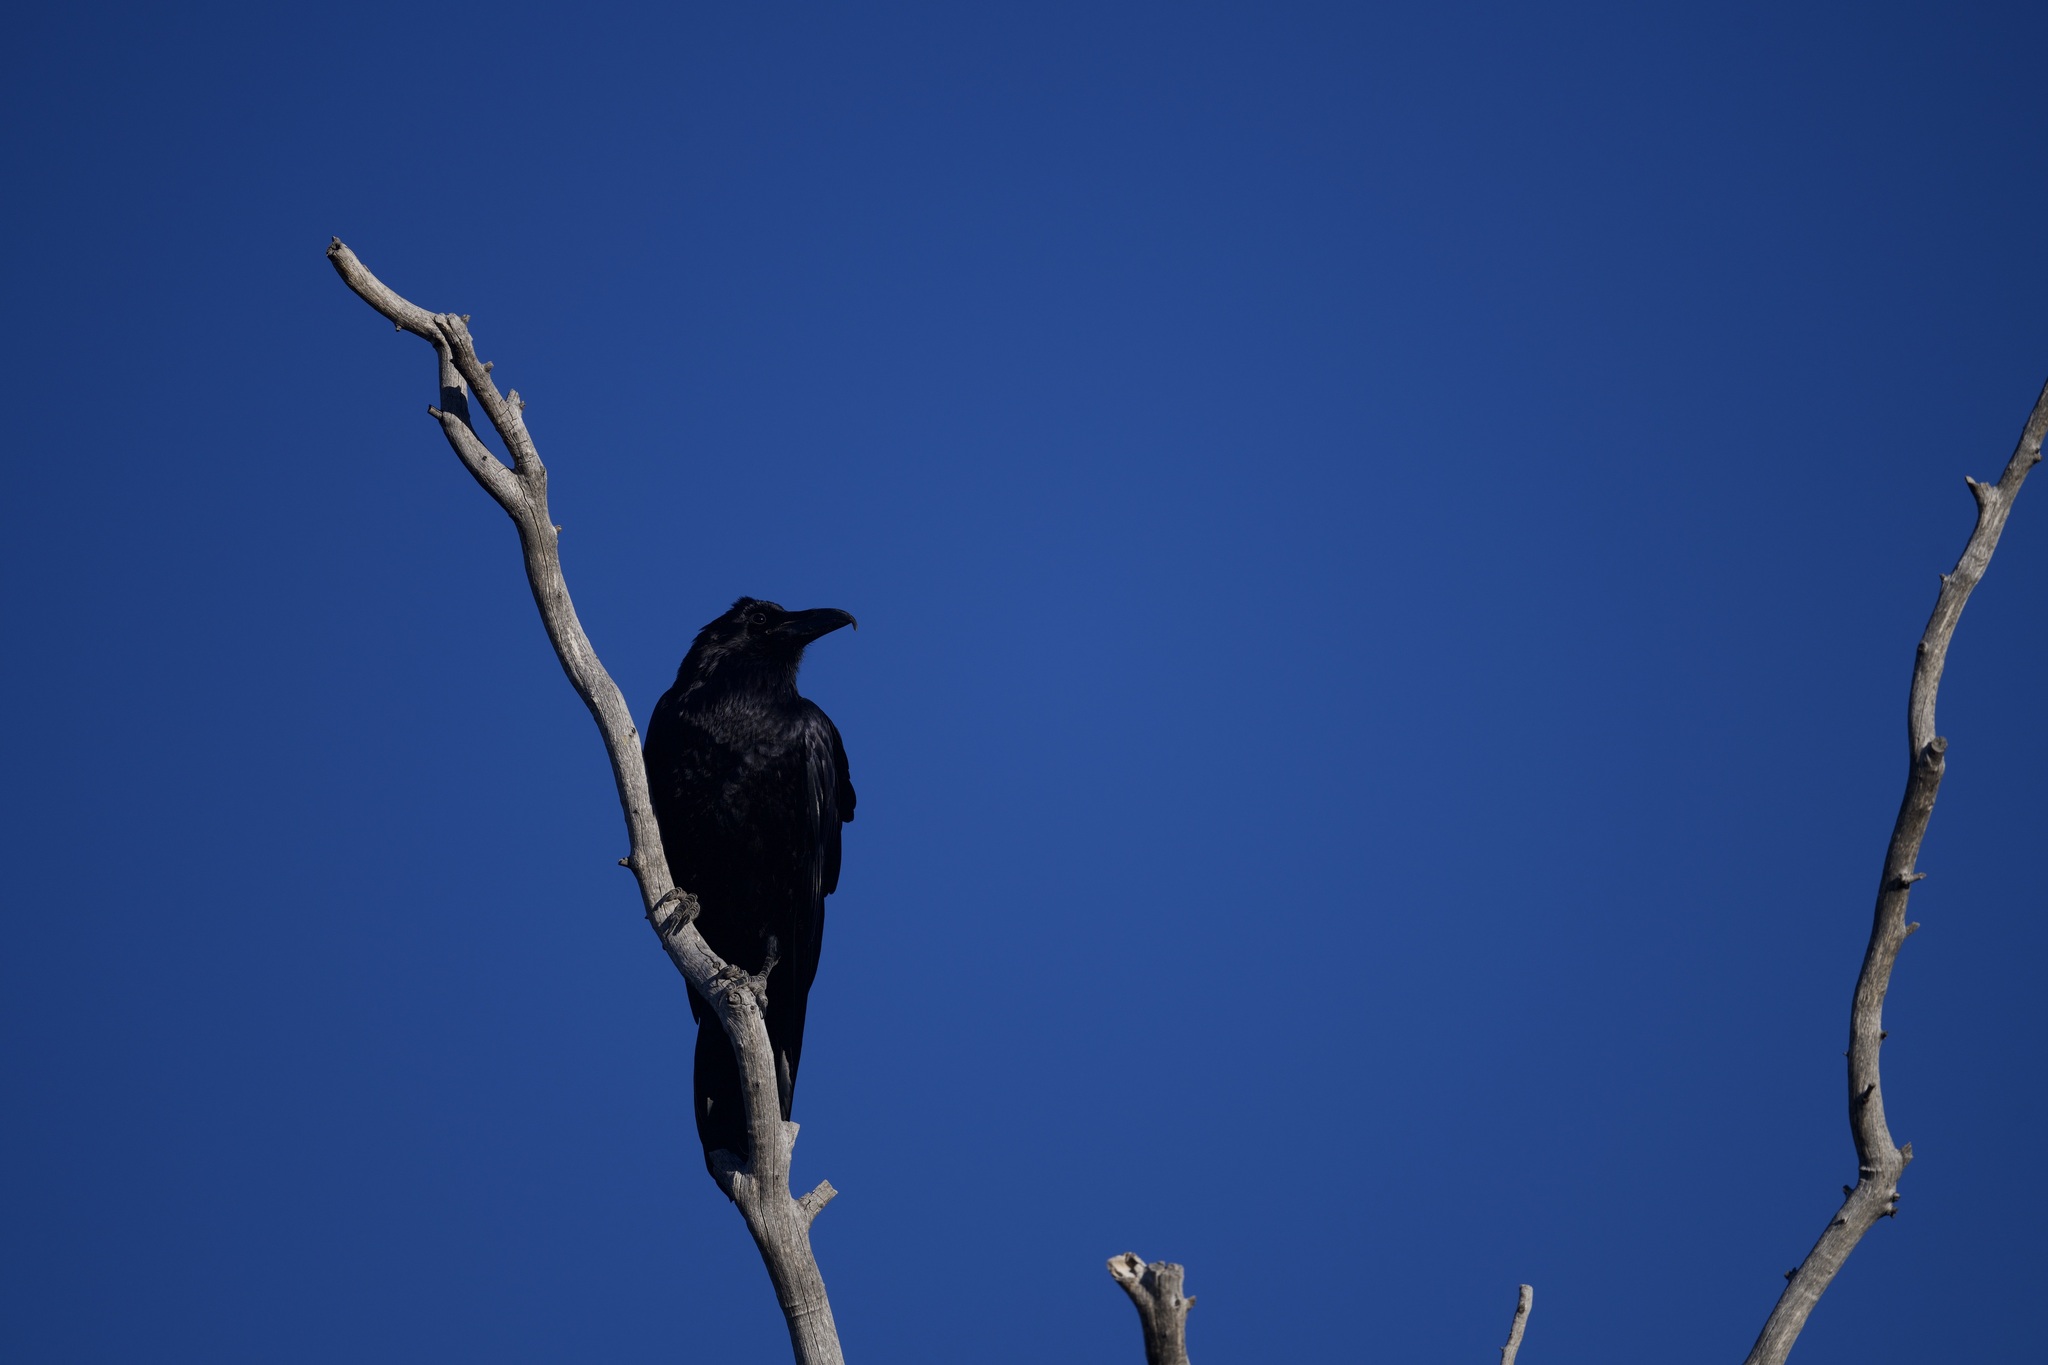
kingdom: Animalia
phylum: Chordata
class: Aves
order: Passeriformes
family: Corvidae
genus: Corvus
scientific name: Corvus corax
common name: Common raven
